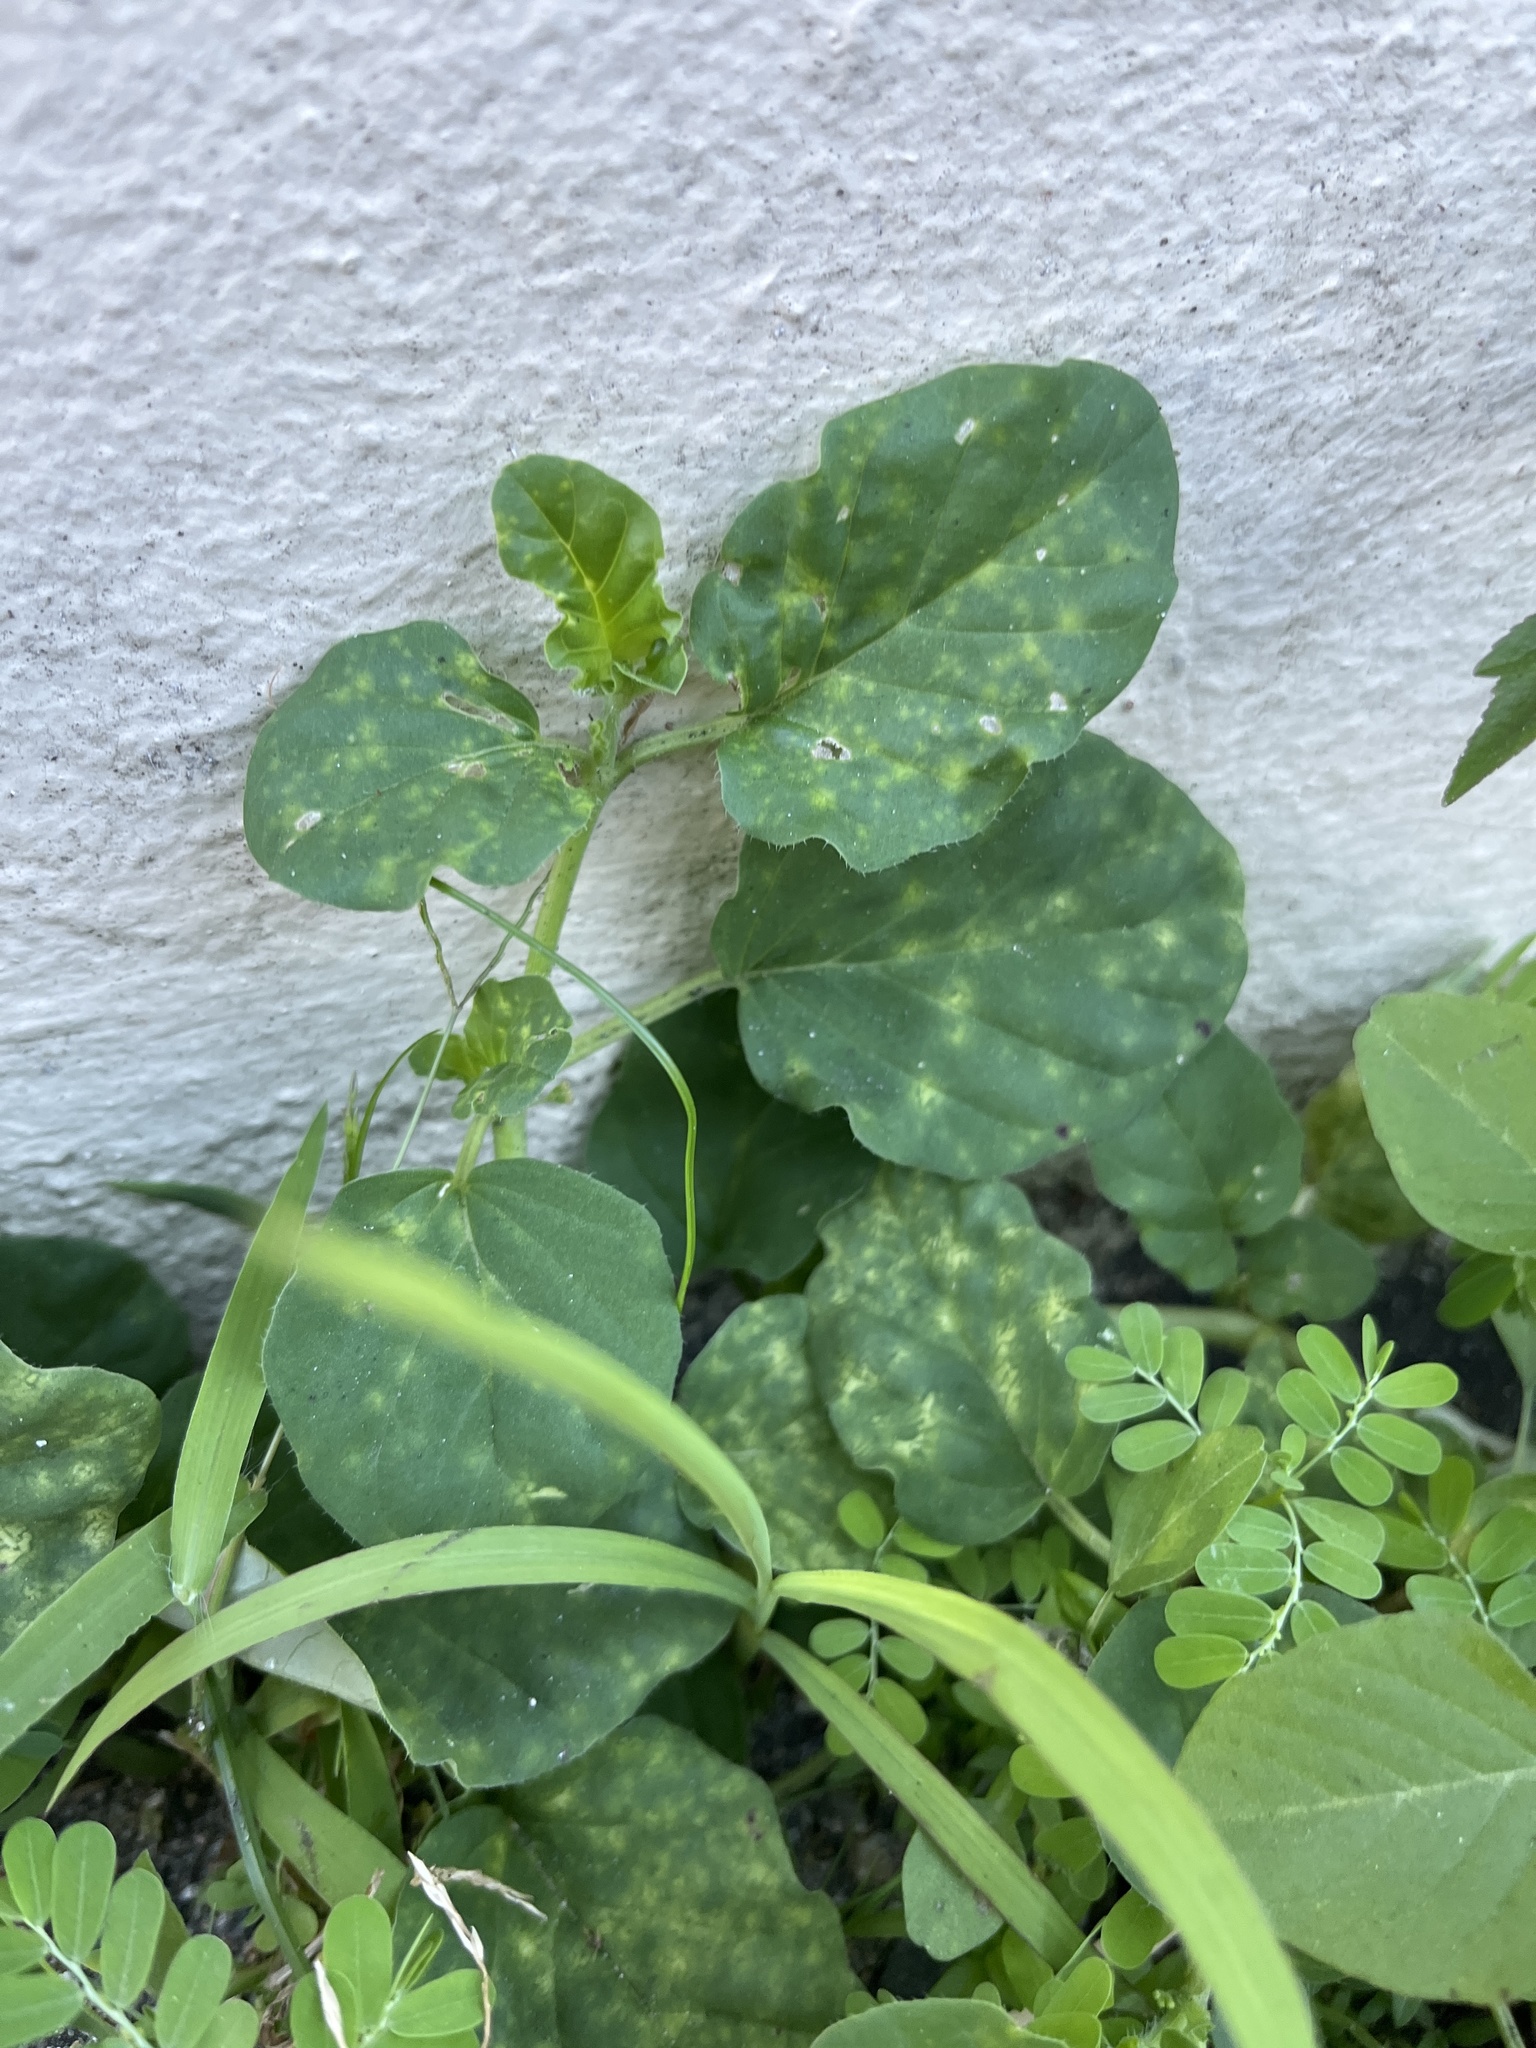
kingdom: Plantae
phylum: Tracheophyta
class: Magnoliopsida
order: Caryophyllales
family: Nyctaginaceae
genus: Boerhavia
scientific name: Boerhavia coccinea
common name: Scarlet spiderling
